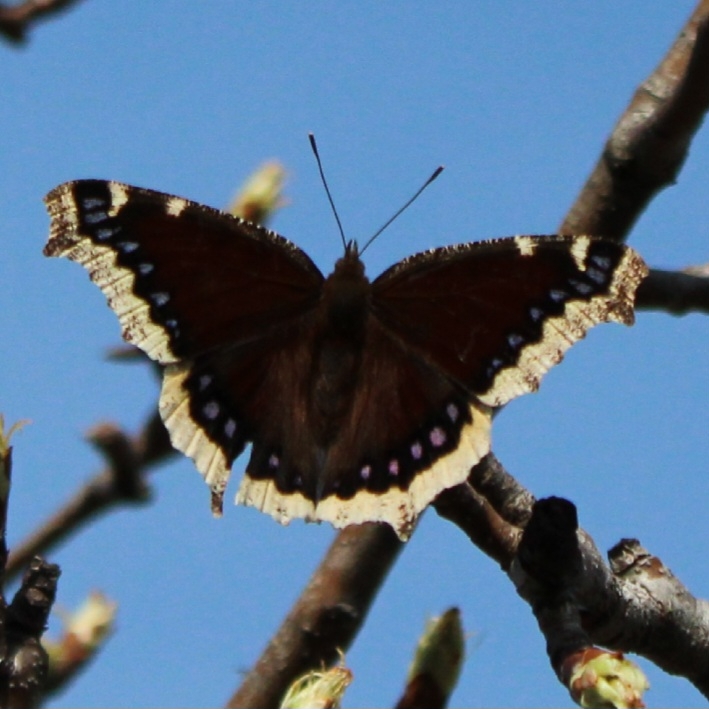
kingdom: Animalia
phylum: Arthropoda
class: Insecta
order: Lepidoptera
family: Nymphalidae
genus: Nymphalis
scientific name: Nymphalis antiopa
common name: Camberwell beauty
